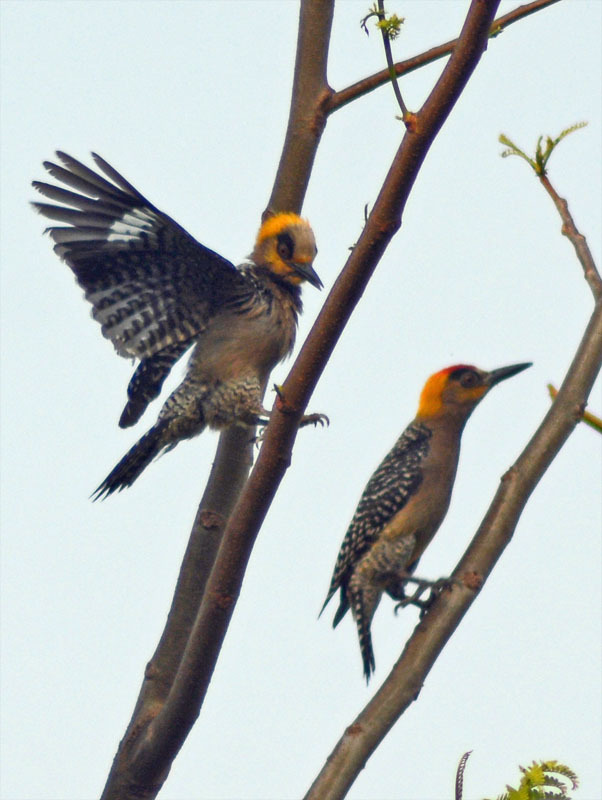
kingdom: Animalia
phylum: Chordata
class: Aves
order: Piciformes
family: Picidae
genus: Melanerpes
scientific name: Melanerpes chrysogenys
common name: Golden-cheeked woodpecker
